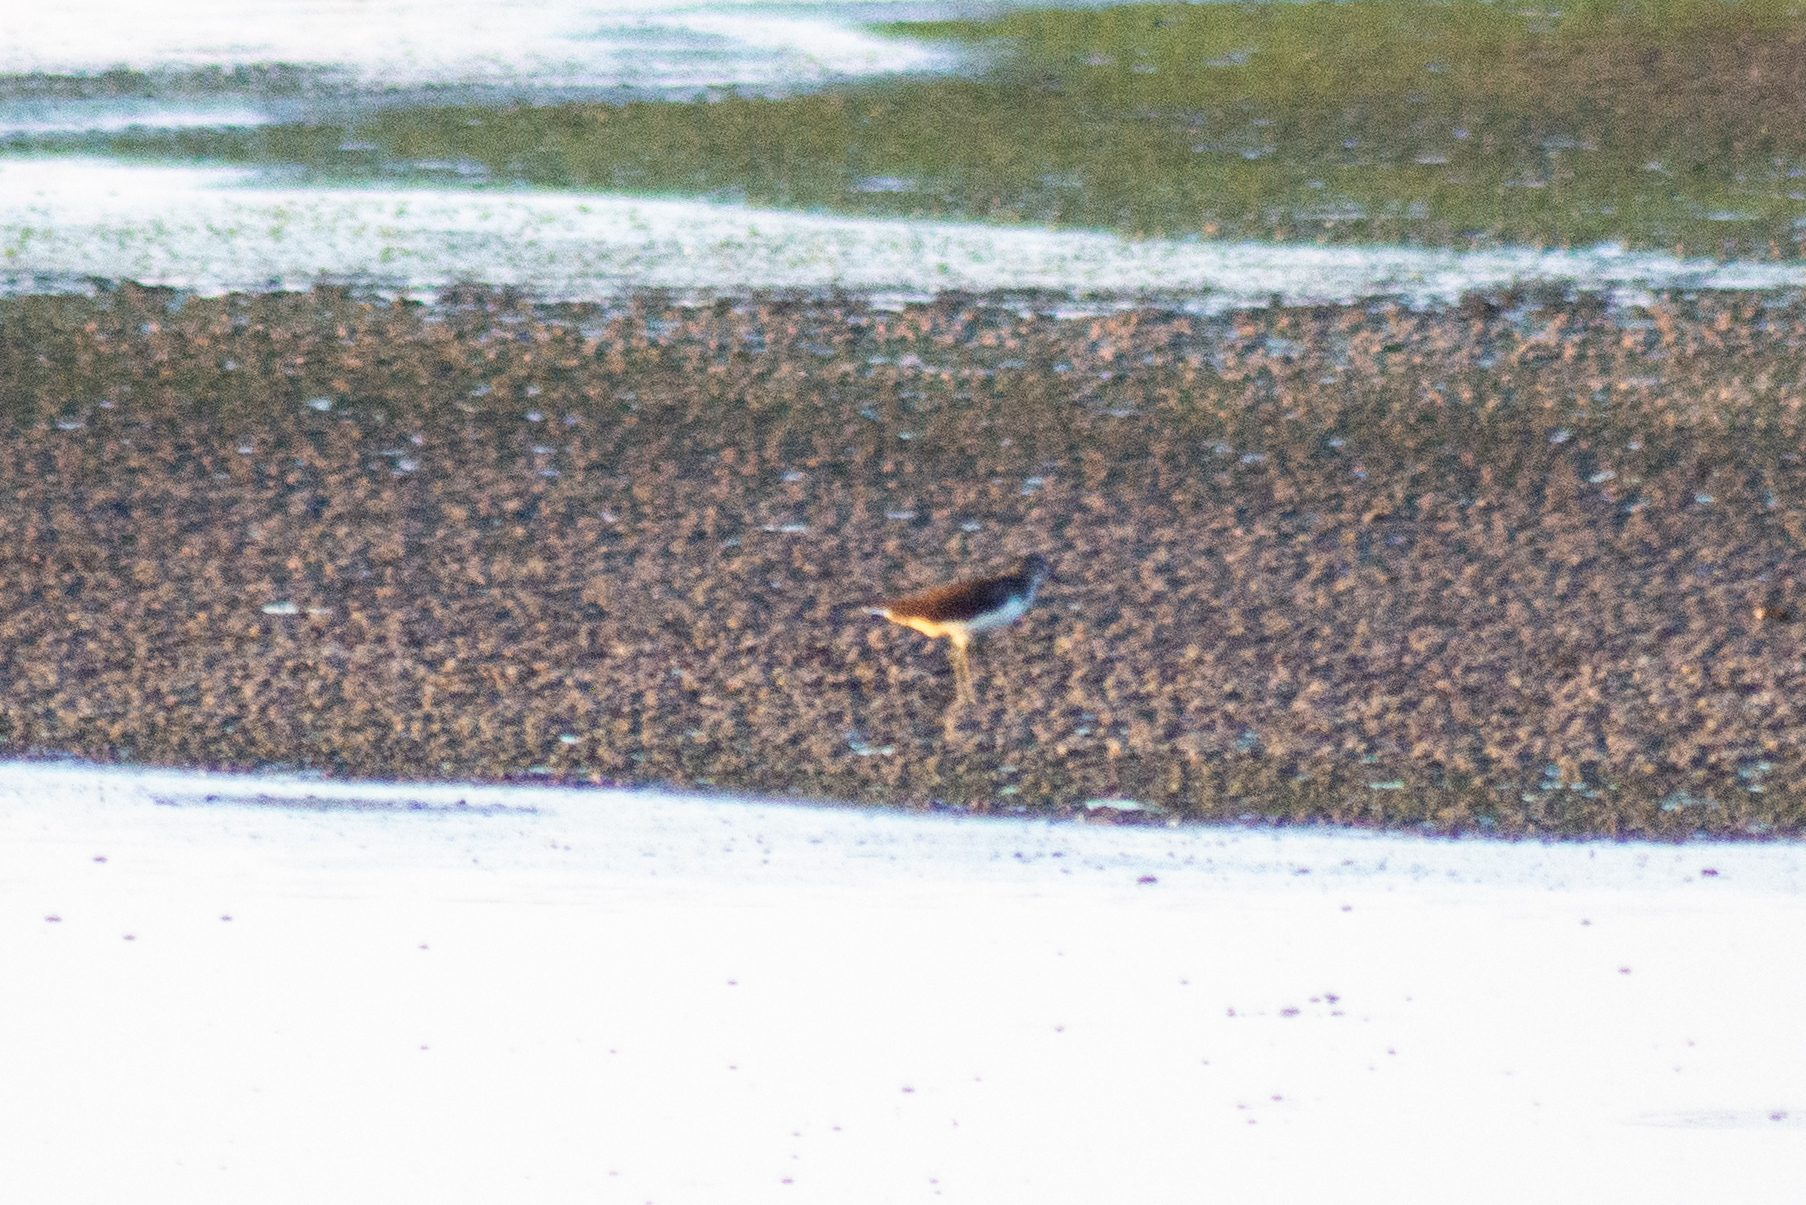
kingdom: Animalia
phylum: Chordata
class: Aves
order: Charadriiformes
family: Scolopacidae
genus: Tringa
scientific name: Tringa ochropus
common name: Green sandpiper
